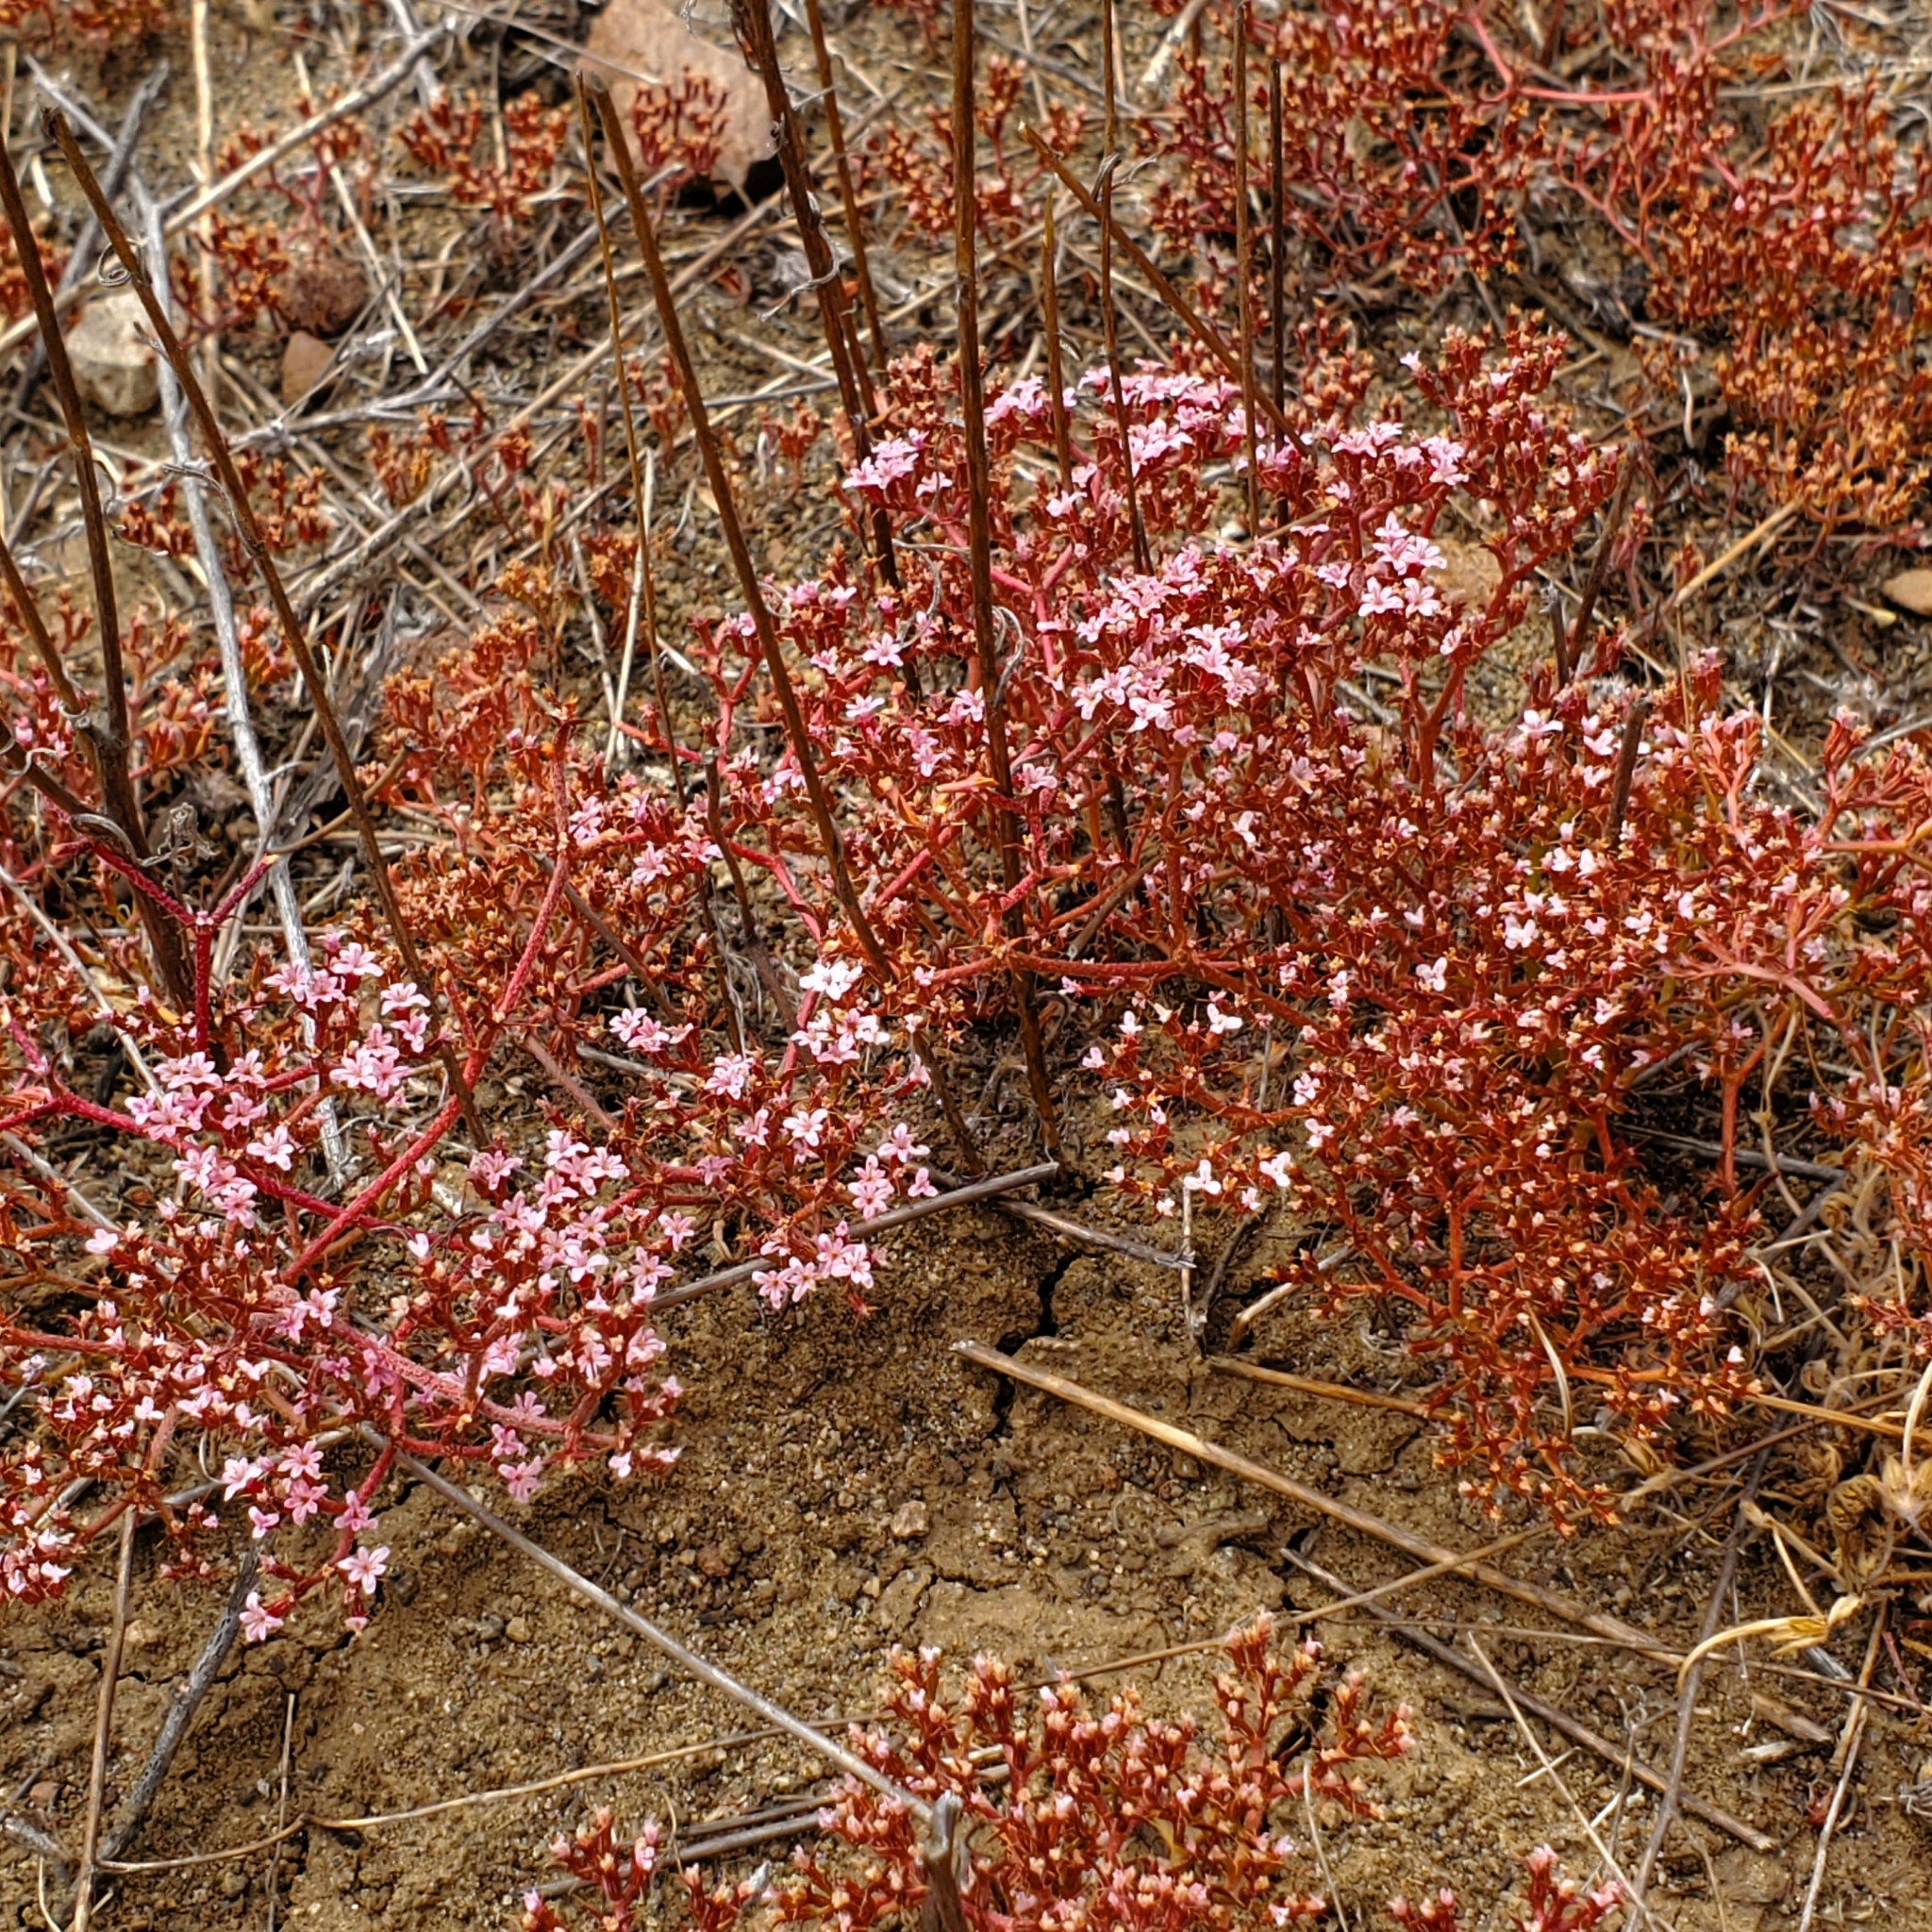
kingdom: Plantae
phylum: Tracheophyta
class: Magnoliopsida
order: Caryophyllales
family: Polygonaceae
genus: Chorizanthe
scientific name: Chorizanthe staticoides
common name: Turkish rugging
